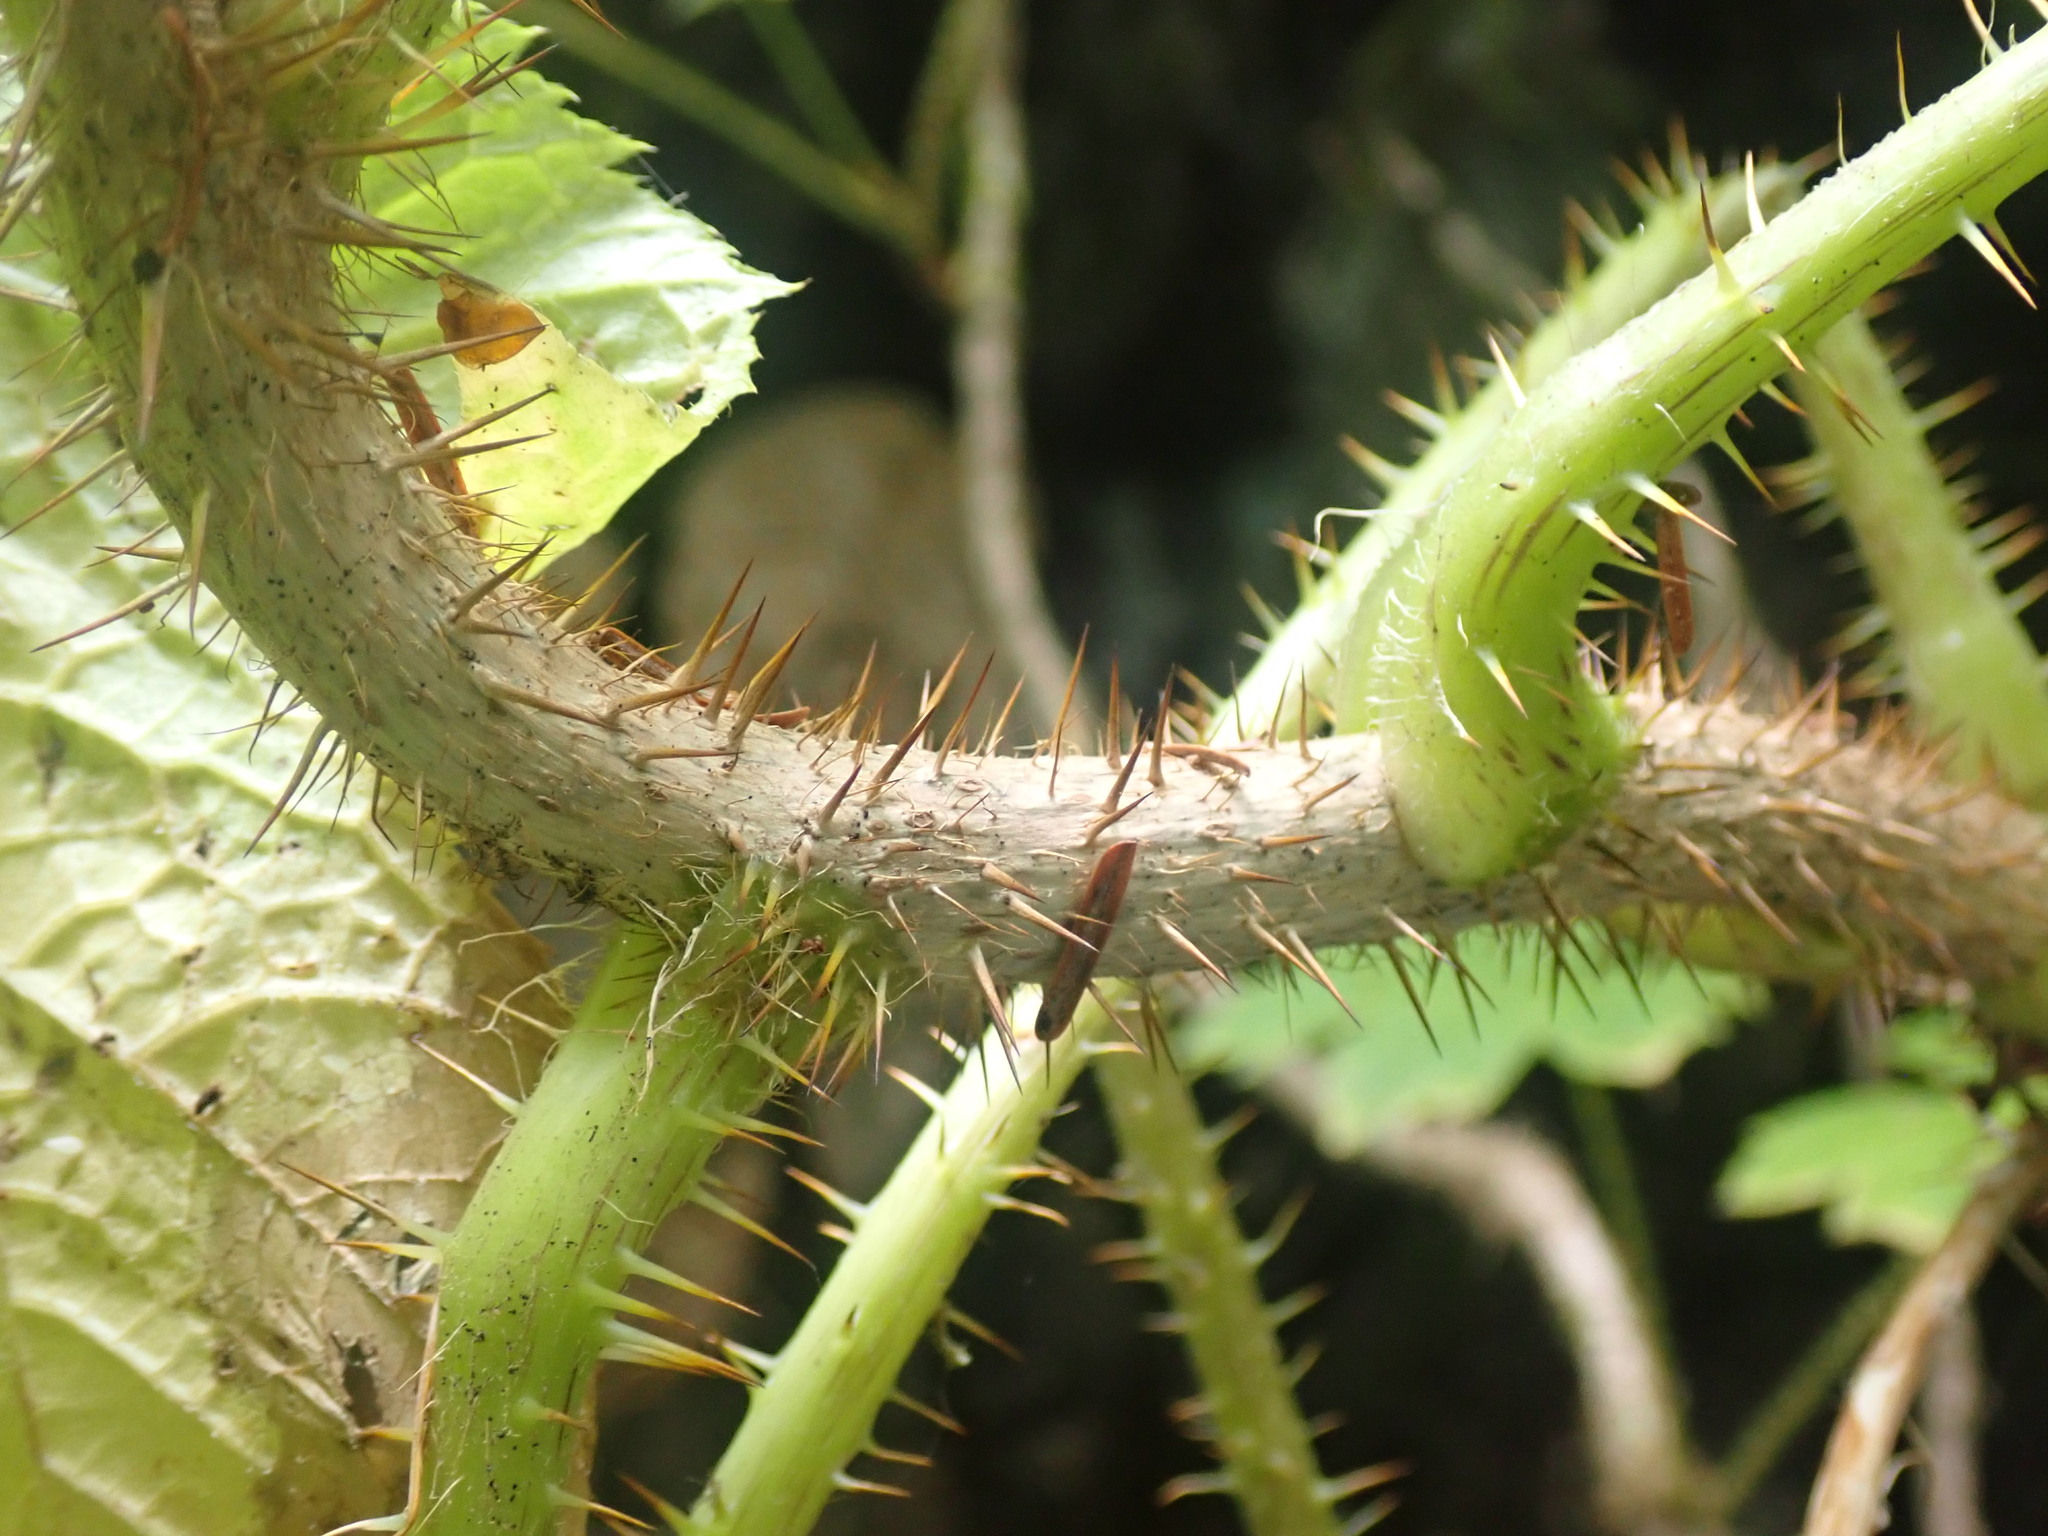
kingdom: Plantae
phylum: Tracheophyta
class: Magnoliopsida
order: Apiales
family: Araliaceae
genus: Oplopanax
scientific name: Oplopanax horridus
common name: Devil's walking-stick
